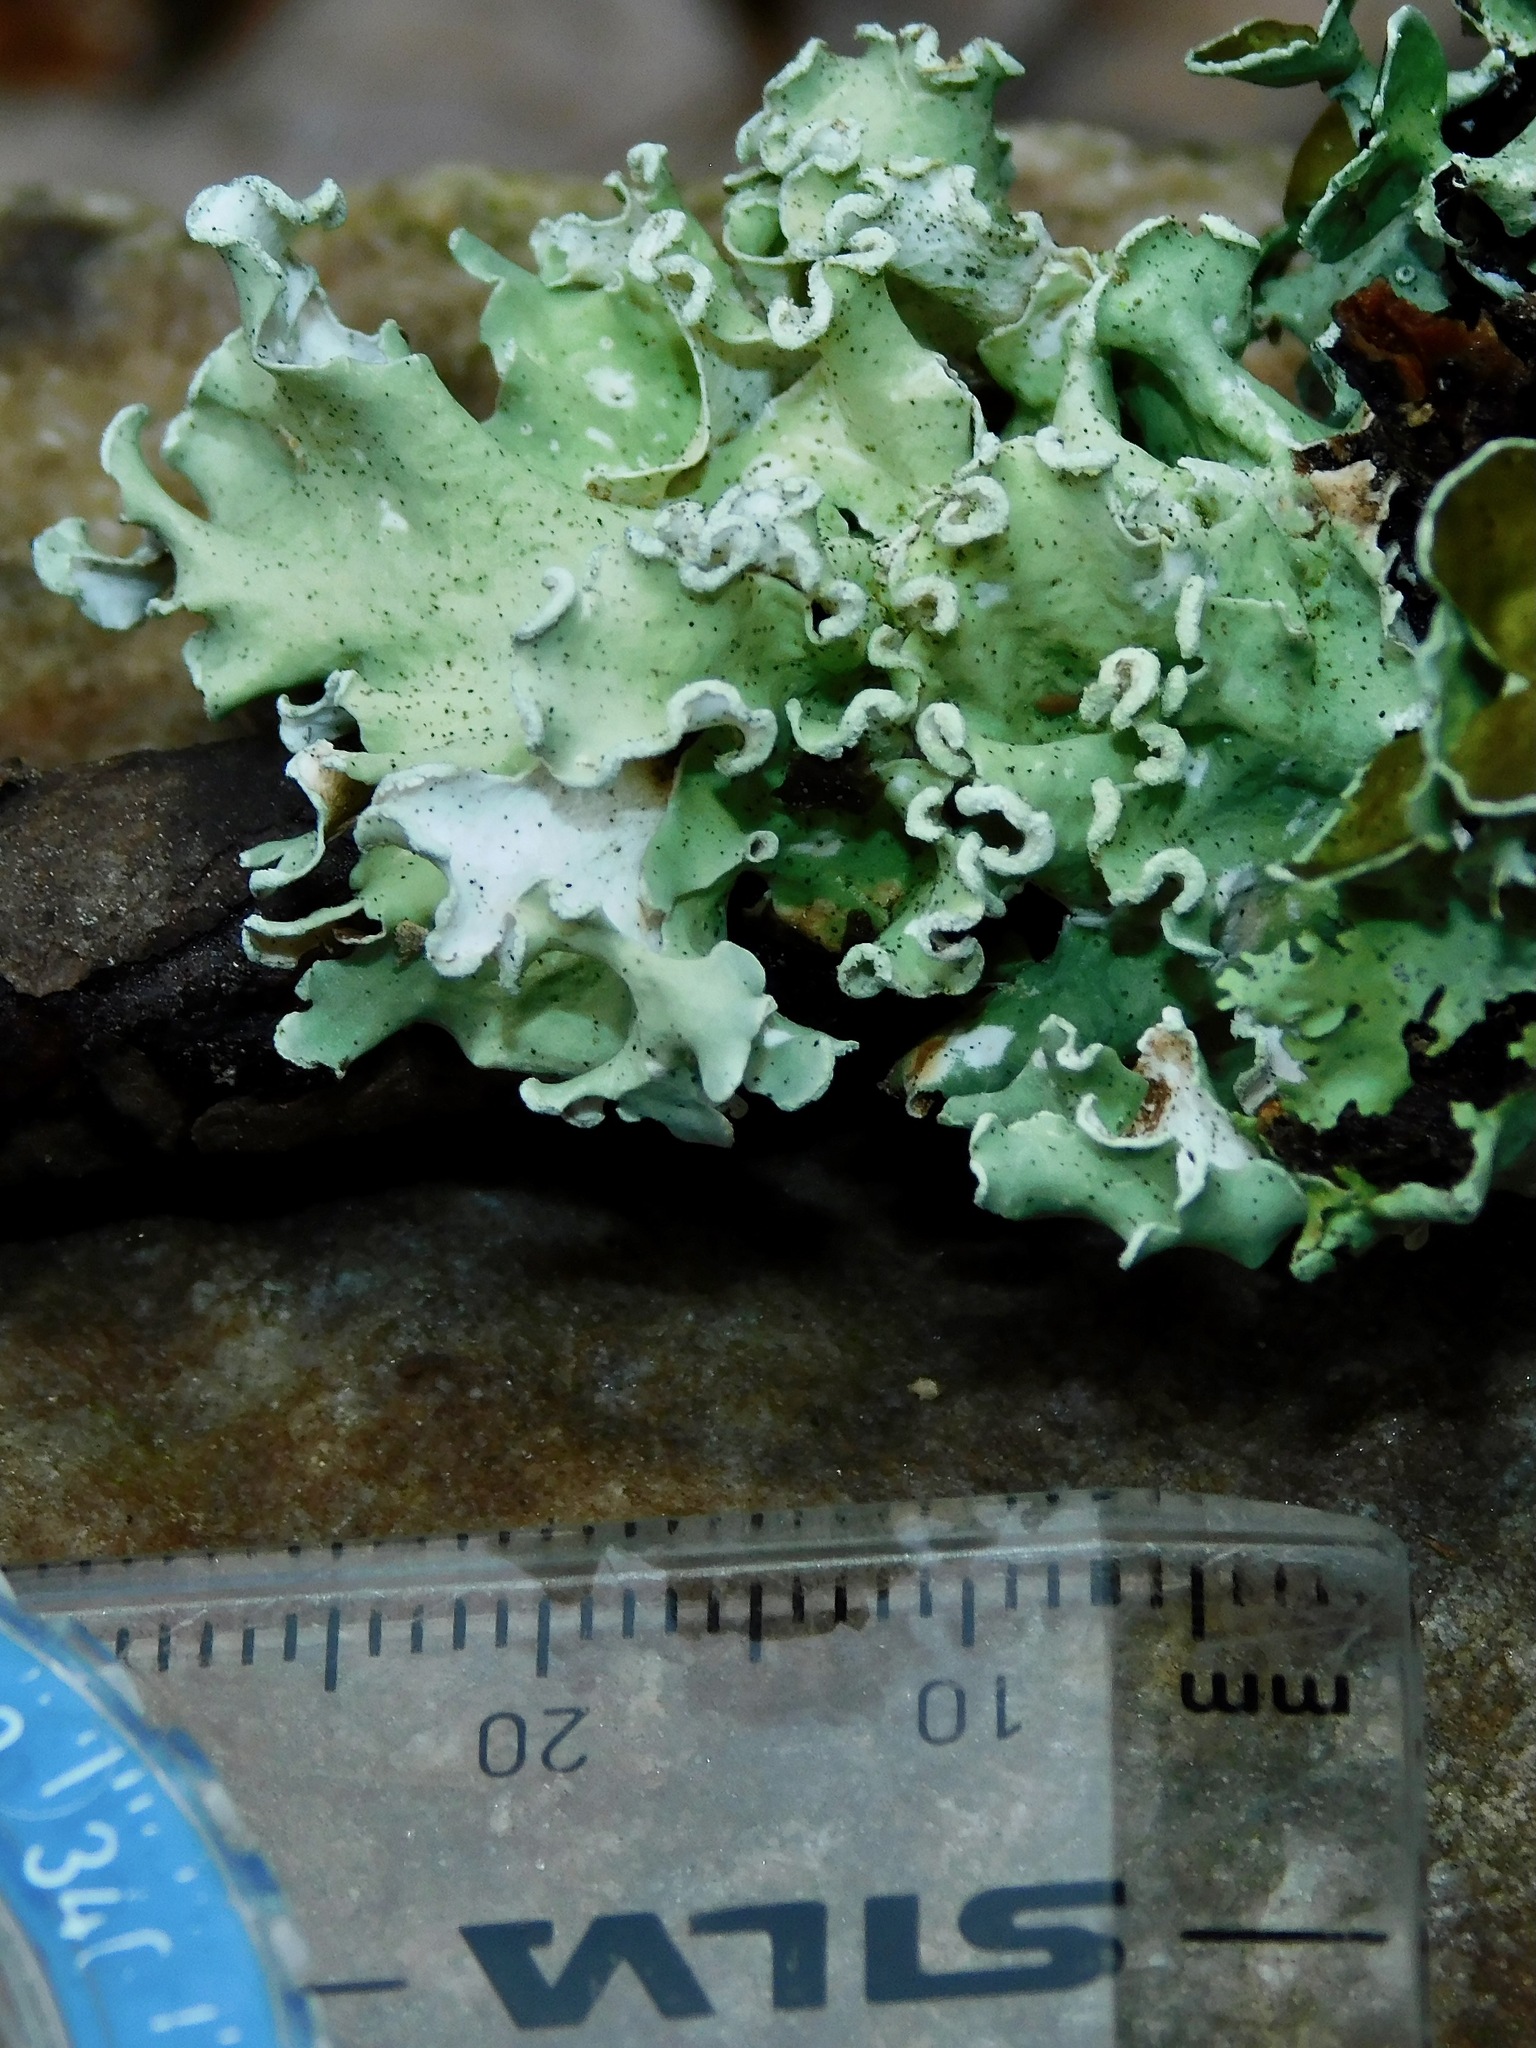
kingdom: Fungi
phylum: Ascomycota
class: Lecanoromycetes
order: Lecanorales
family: Parmeliaceae
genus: Parmotrema
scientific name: Parmotrema austrosinense
